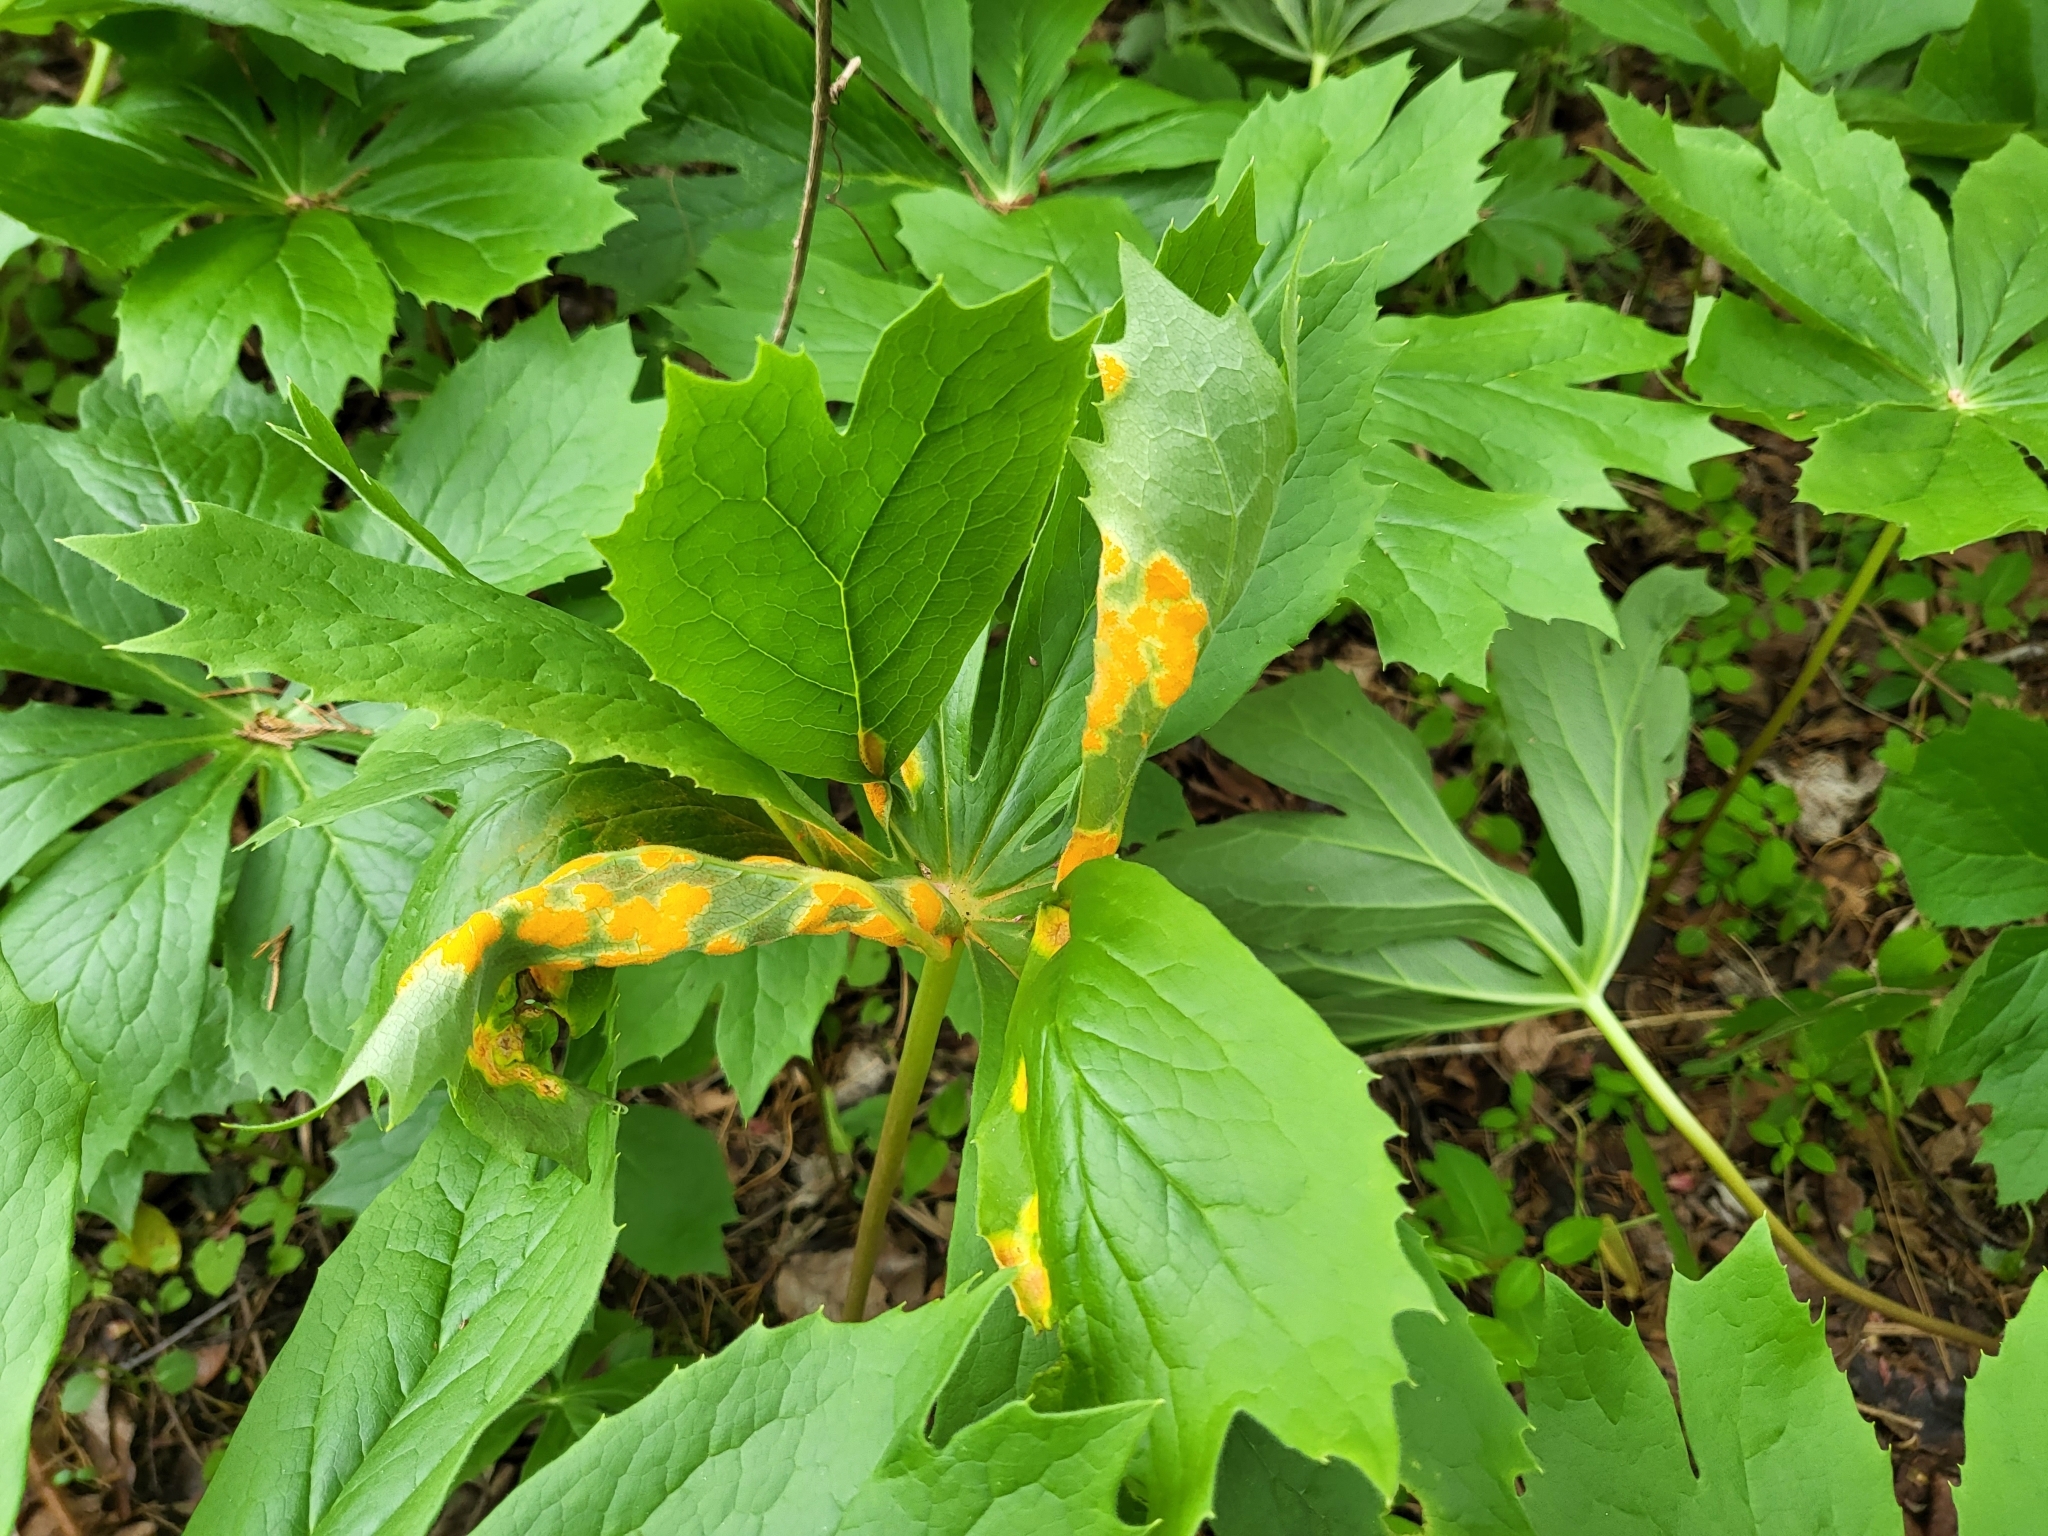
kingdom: Fungi
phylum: Basidiomycota
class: Pucciniomycetes
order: Pucciniales
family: Pucciniaceae
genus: Puccinia
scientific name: Puccinia podophylli
